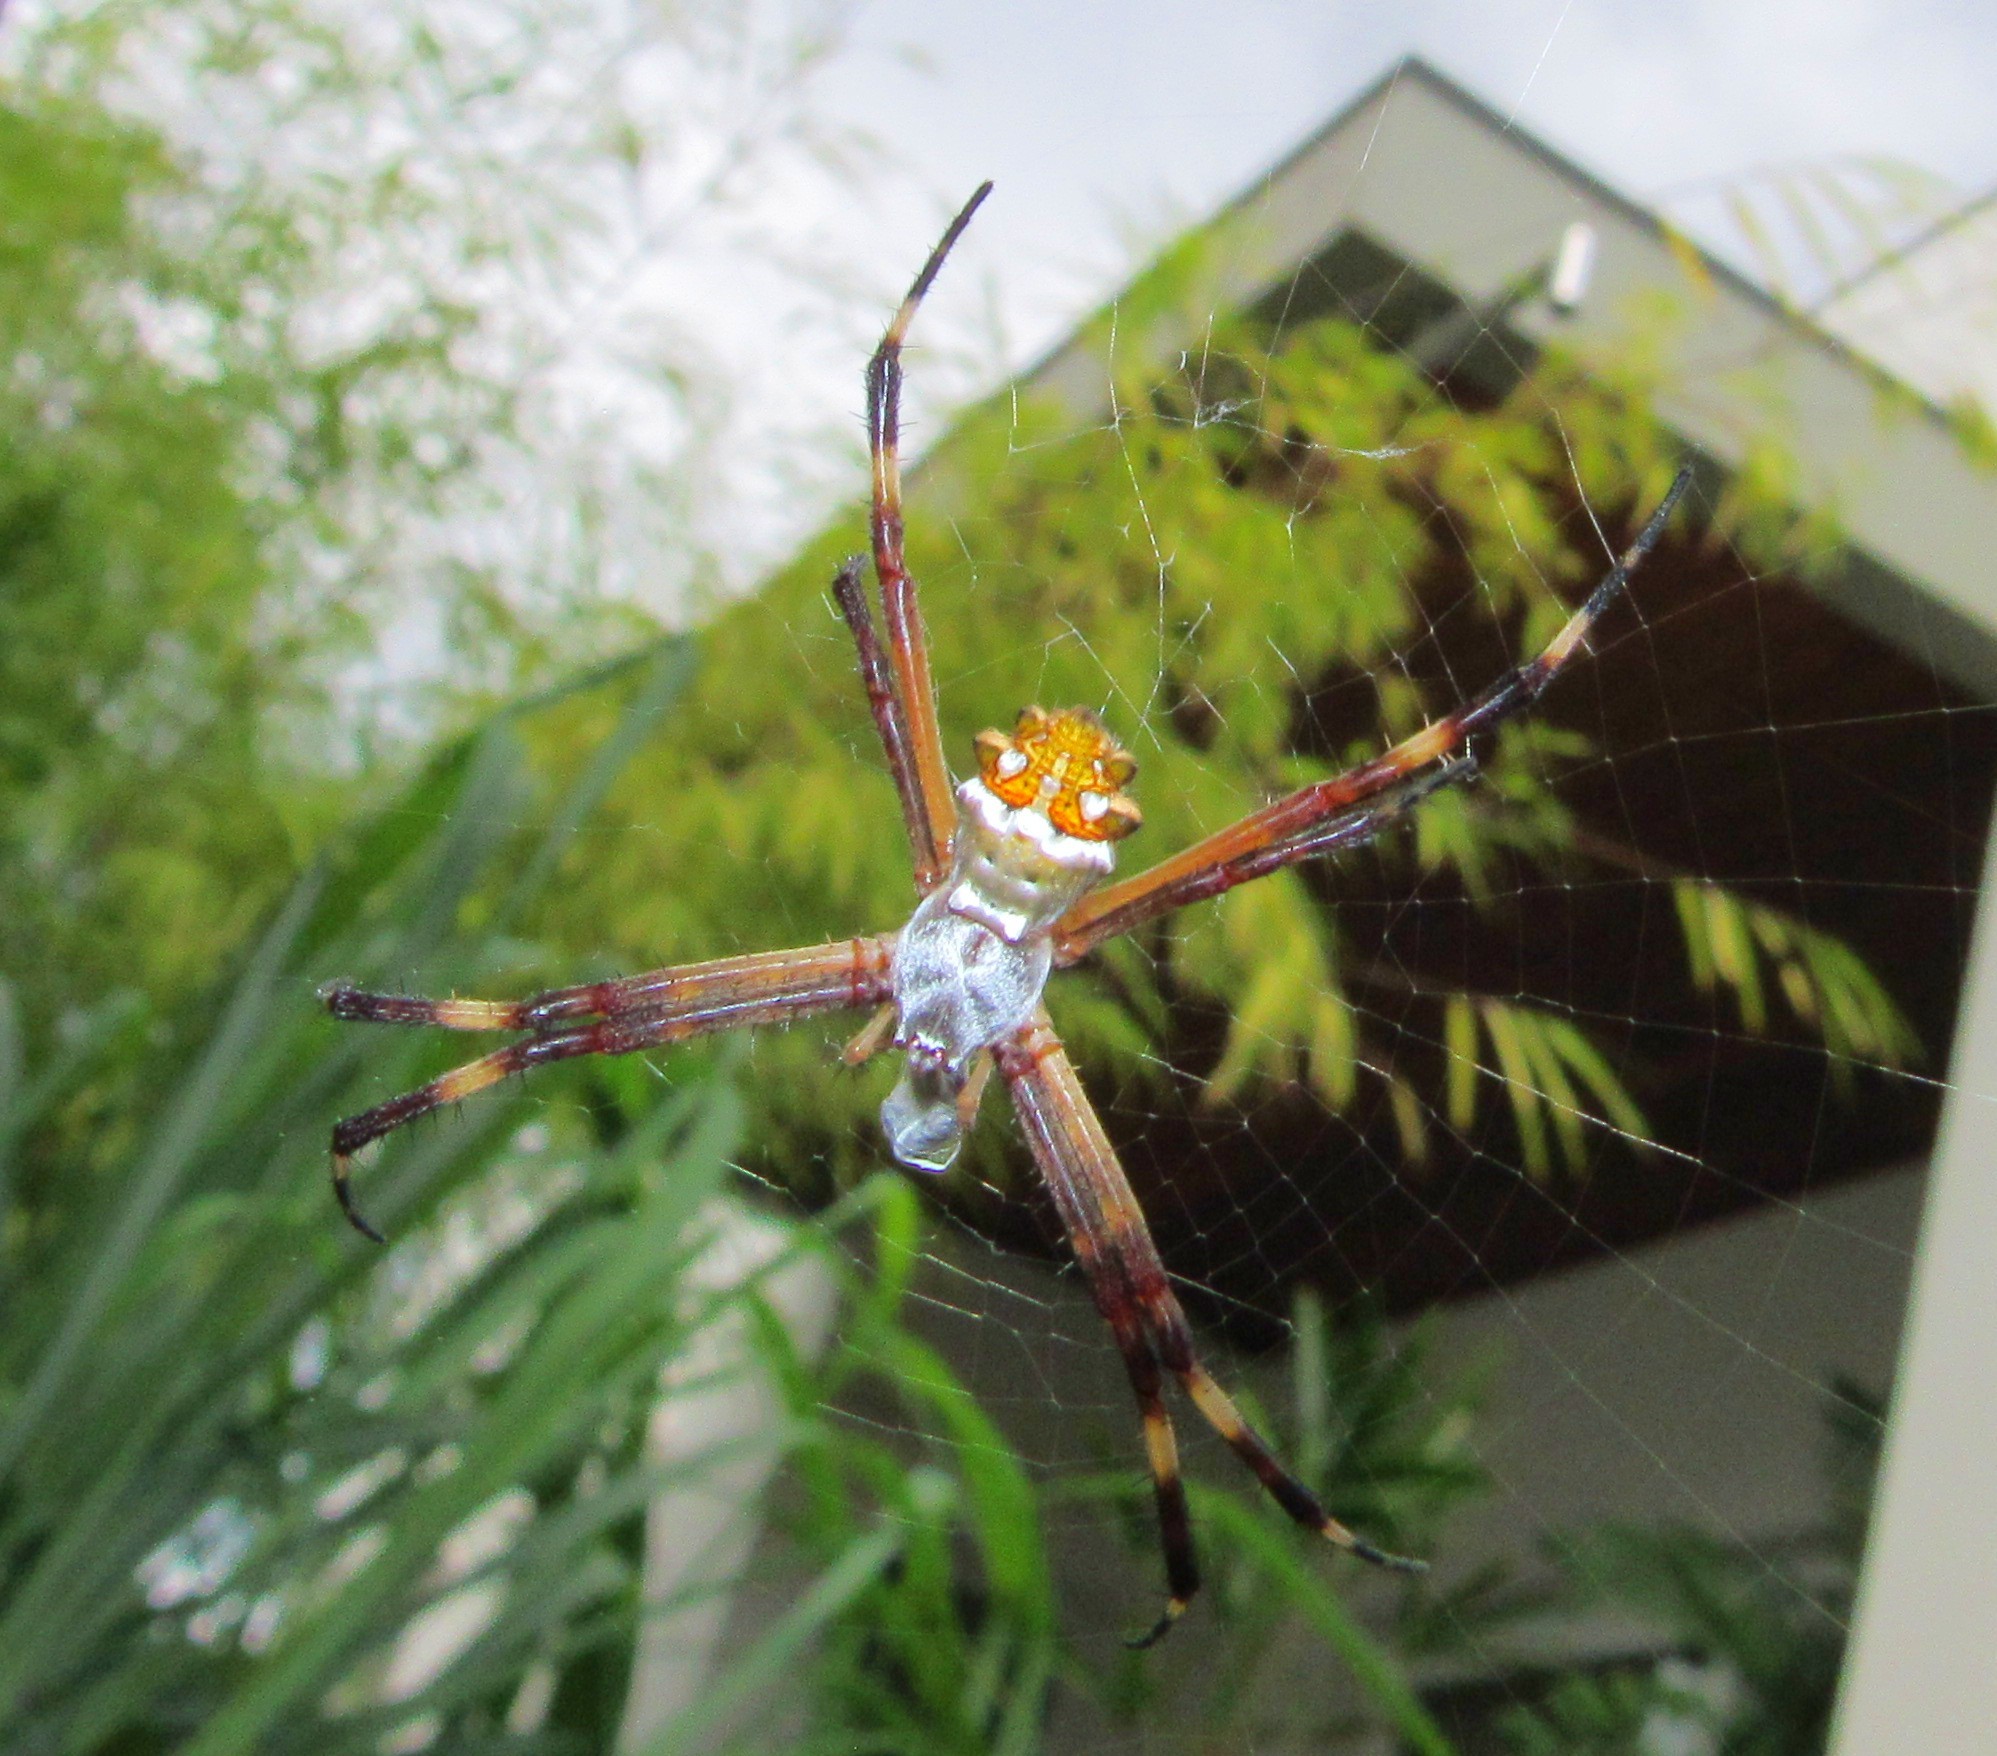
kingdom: Animalia
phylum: Arthropoda
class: Arachnida
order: Araneae
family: Araneidae
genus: Argiope
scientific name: Argiope argentata
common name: Orb weavers
